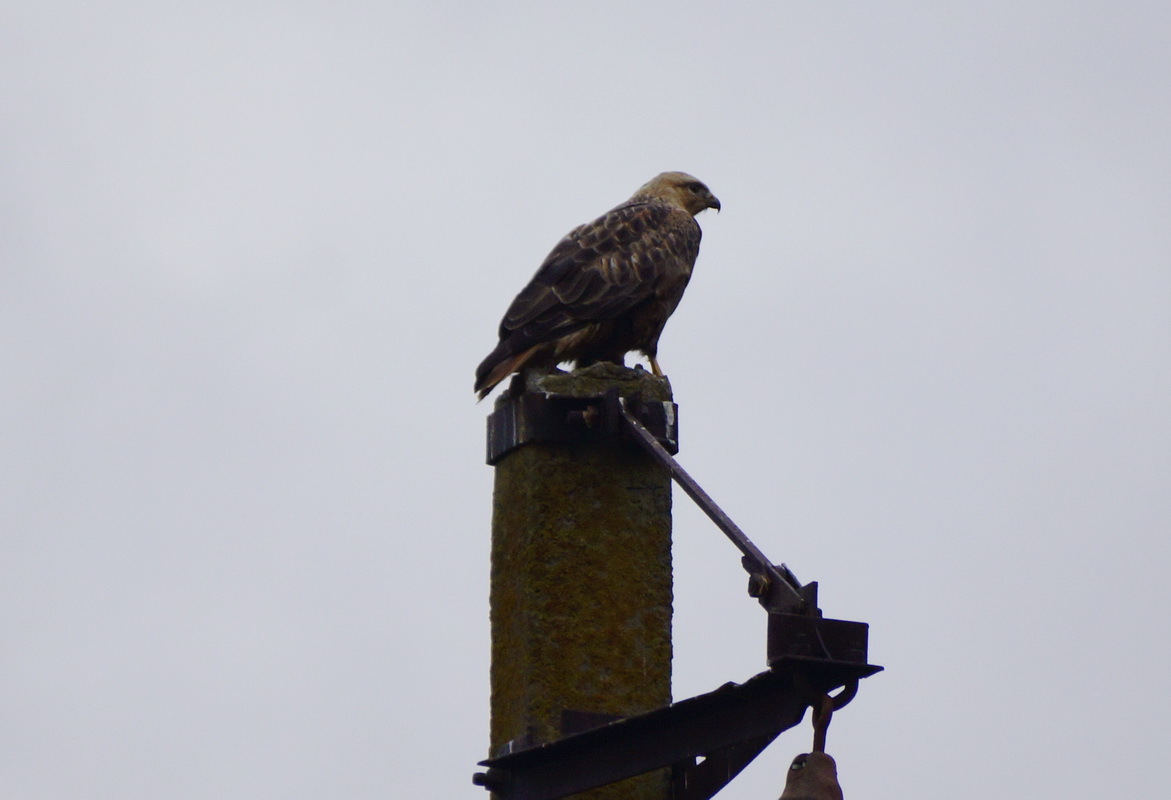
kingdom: Animalia
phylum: Chordata
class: Aves
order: Accipitriformes
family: Accipitridae
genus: Buteo
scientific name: Buteo rufinus
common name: Long-legged buzzard
